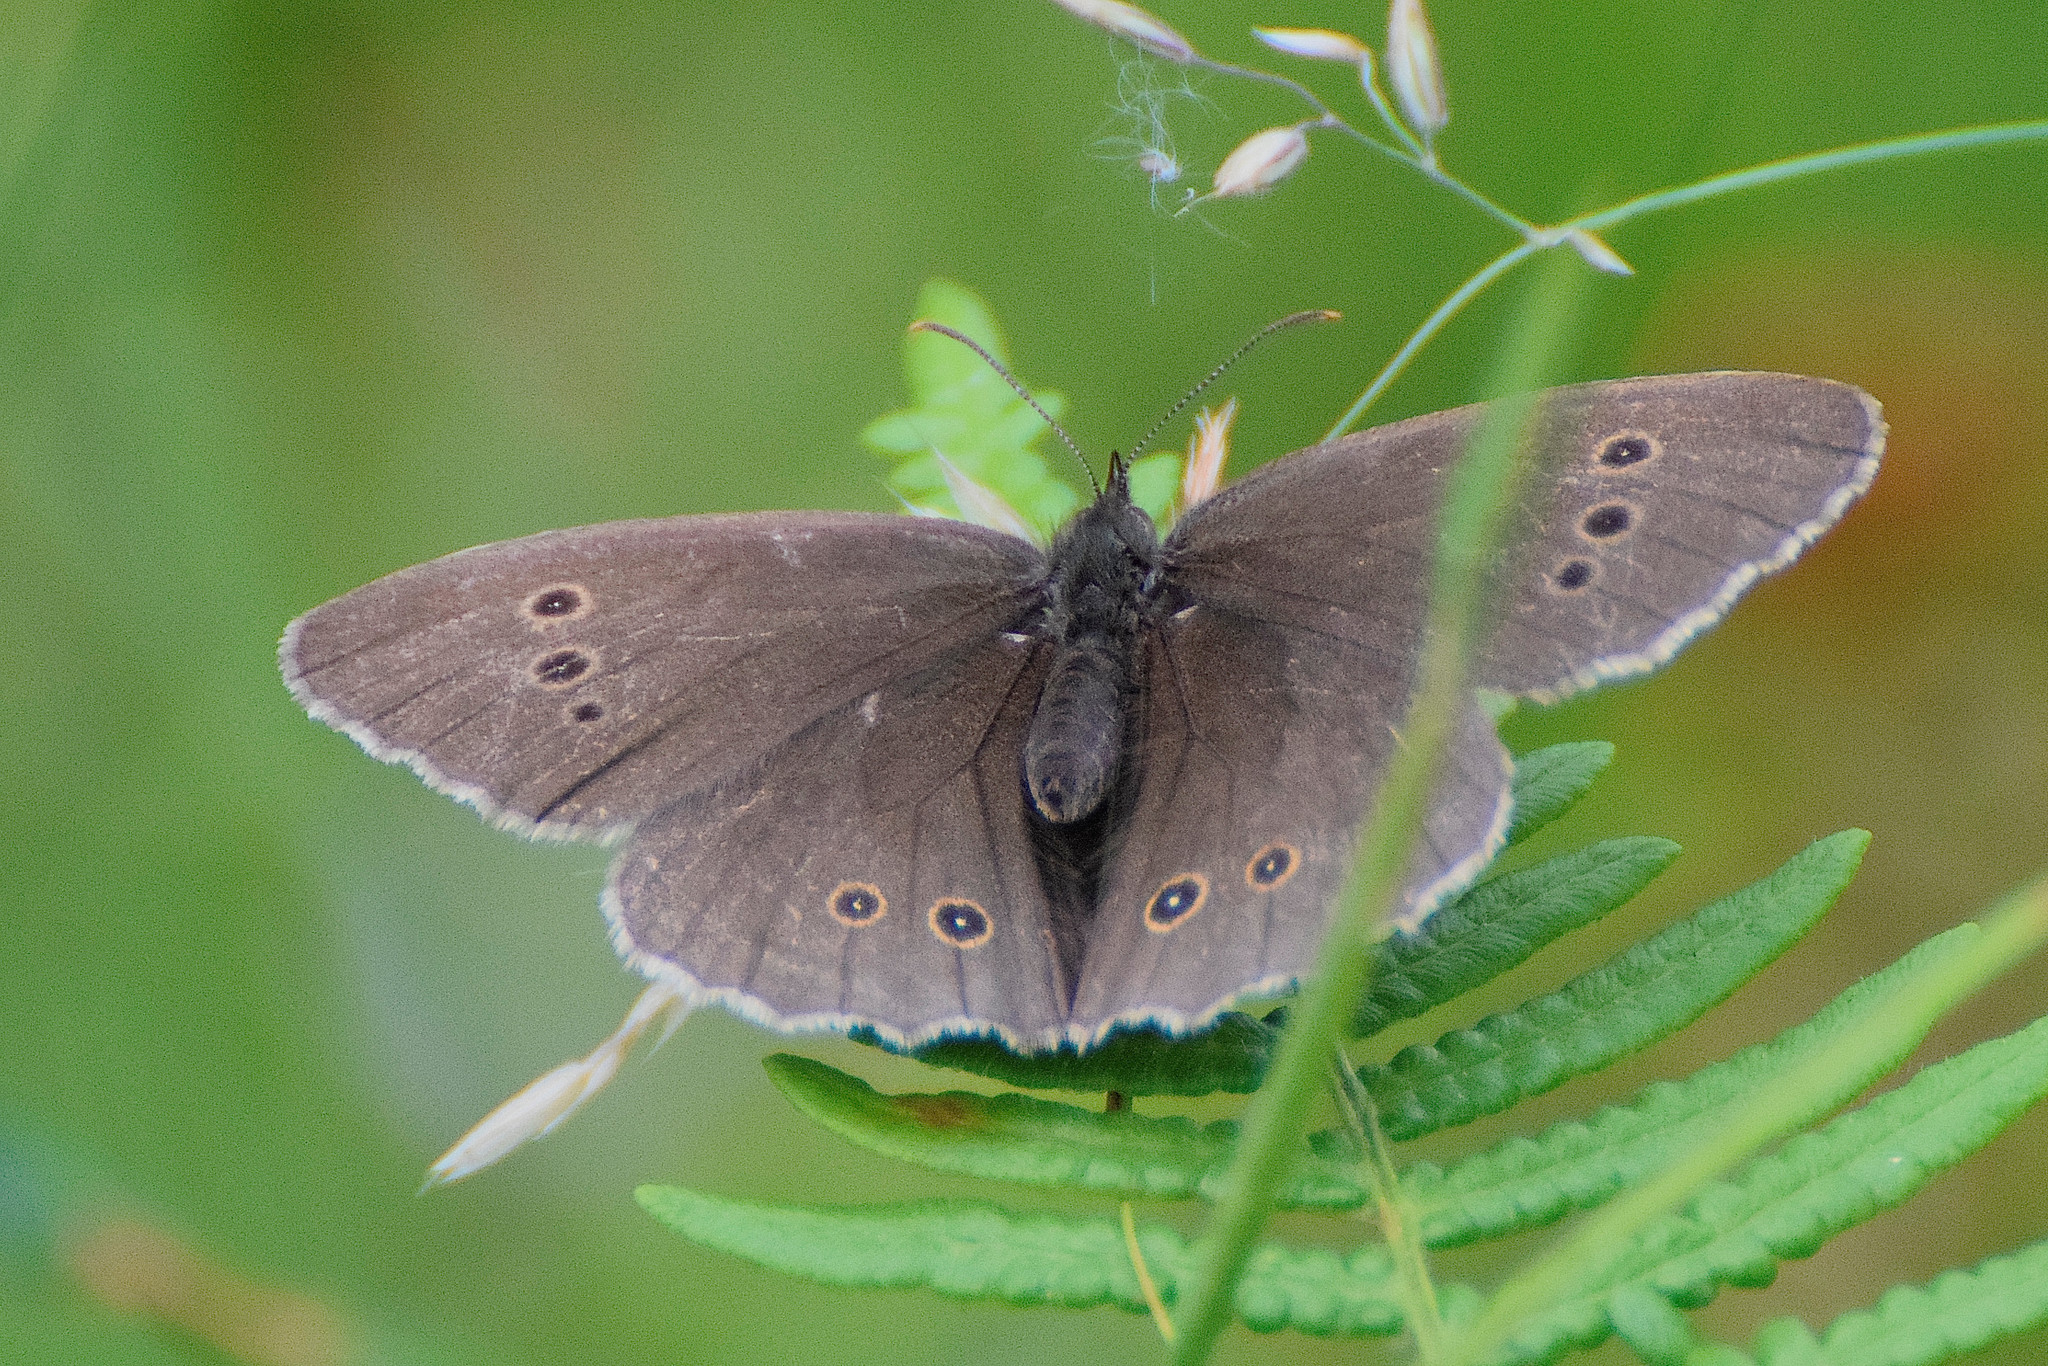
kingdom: Animalia
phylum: Arthropoda
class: Insecta
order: Lepidoptera
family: Nymphalidae
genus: Aphantopus
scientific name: Aphantopus hyperantus
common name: Ringlet
